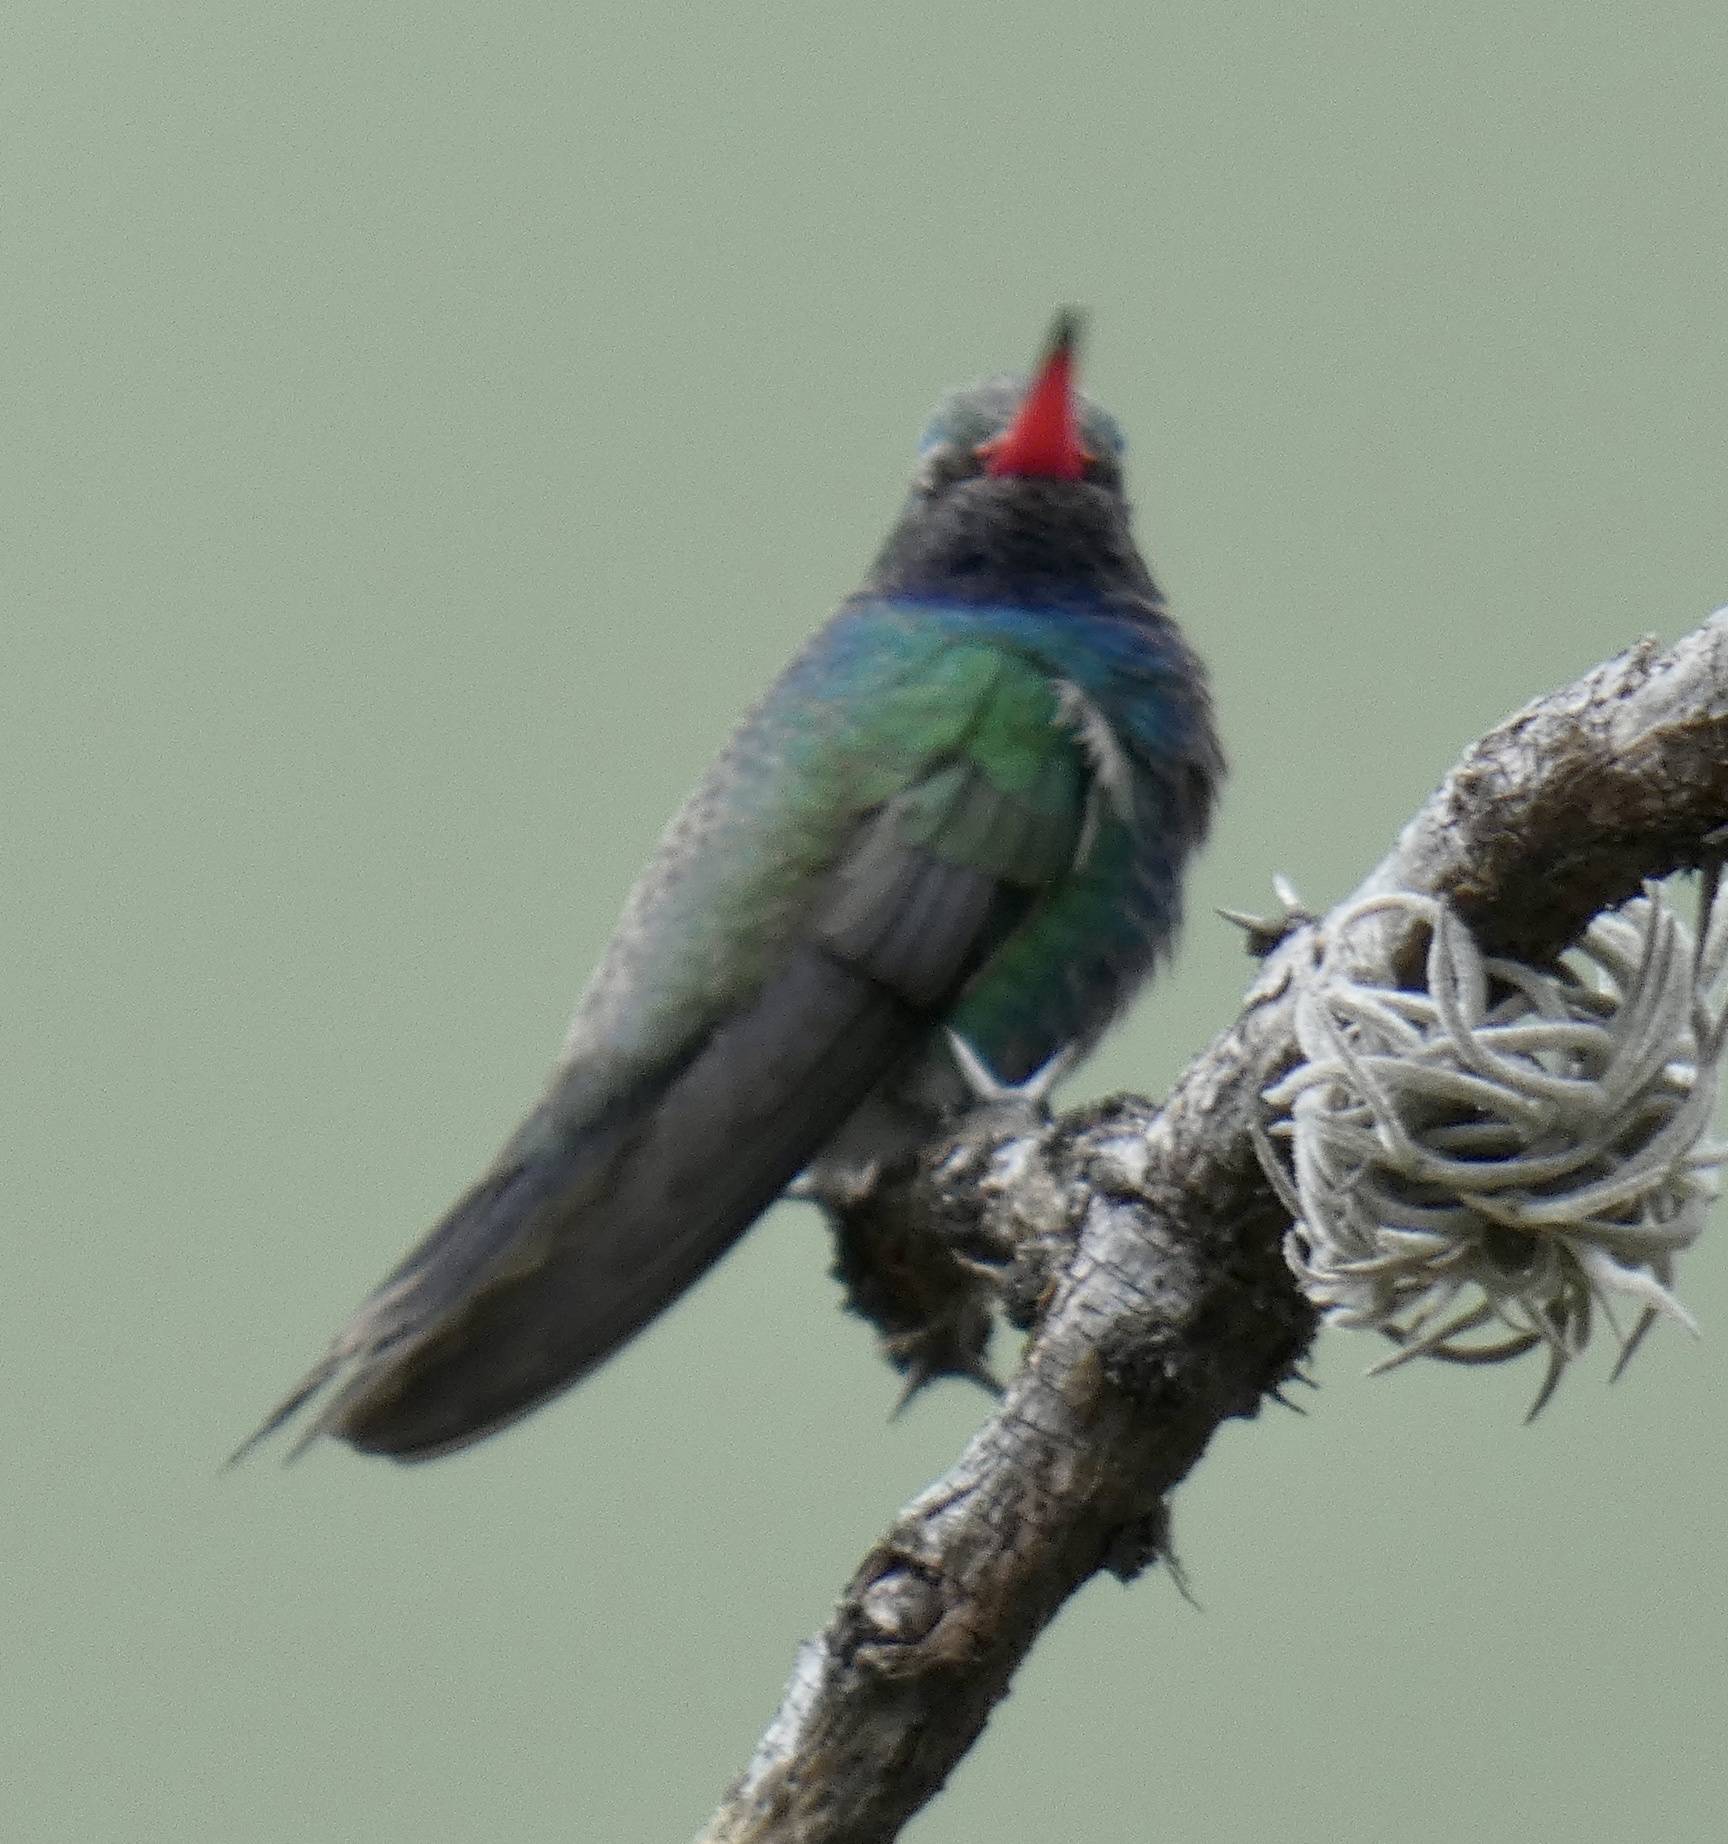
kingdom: Animalia
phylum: Chordata
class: Aves
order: Apodiformes
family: Trochilidae
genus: Cynanthus
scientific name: Cynanthus latirostris
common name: Broad-billed hummingbird
